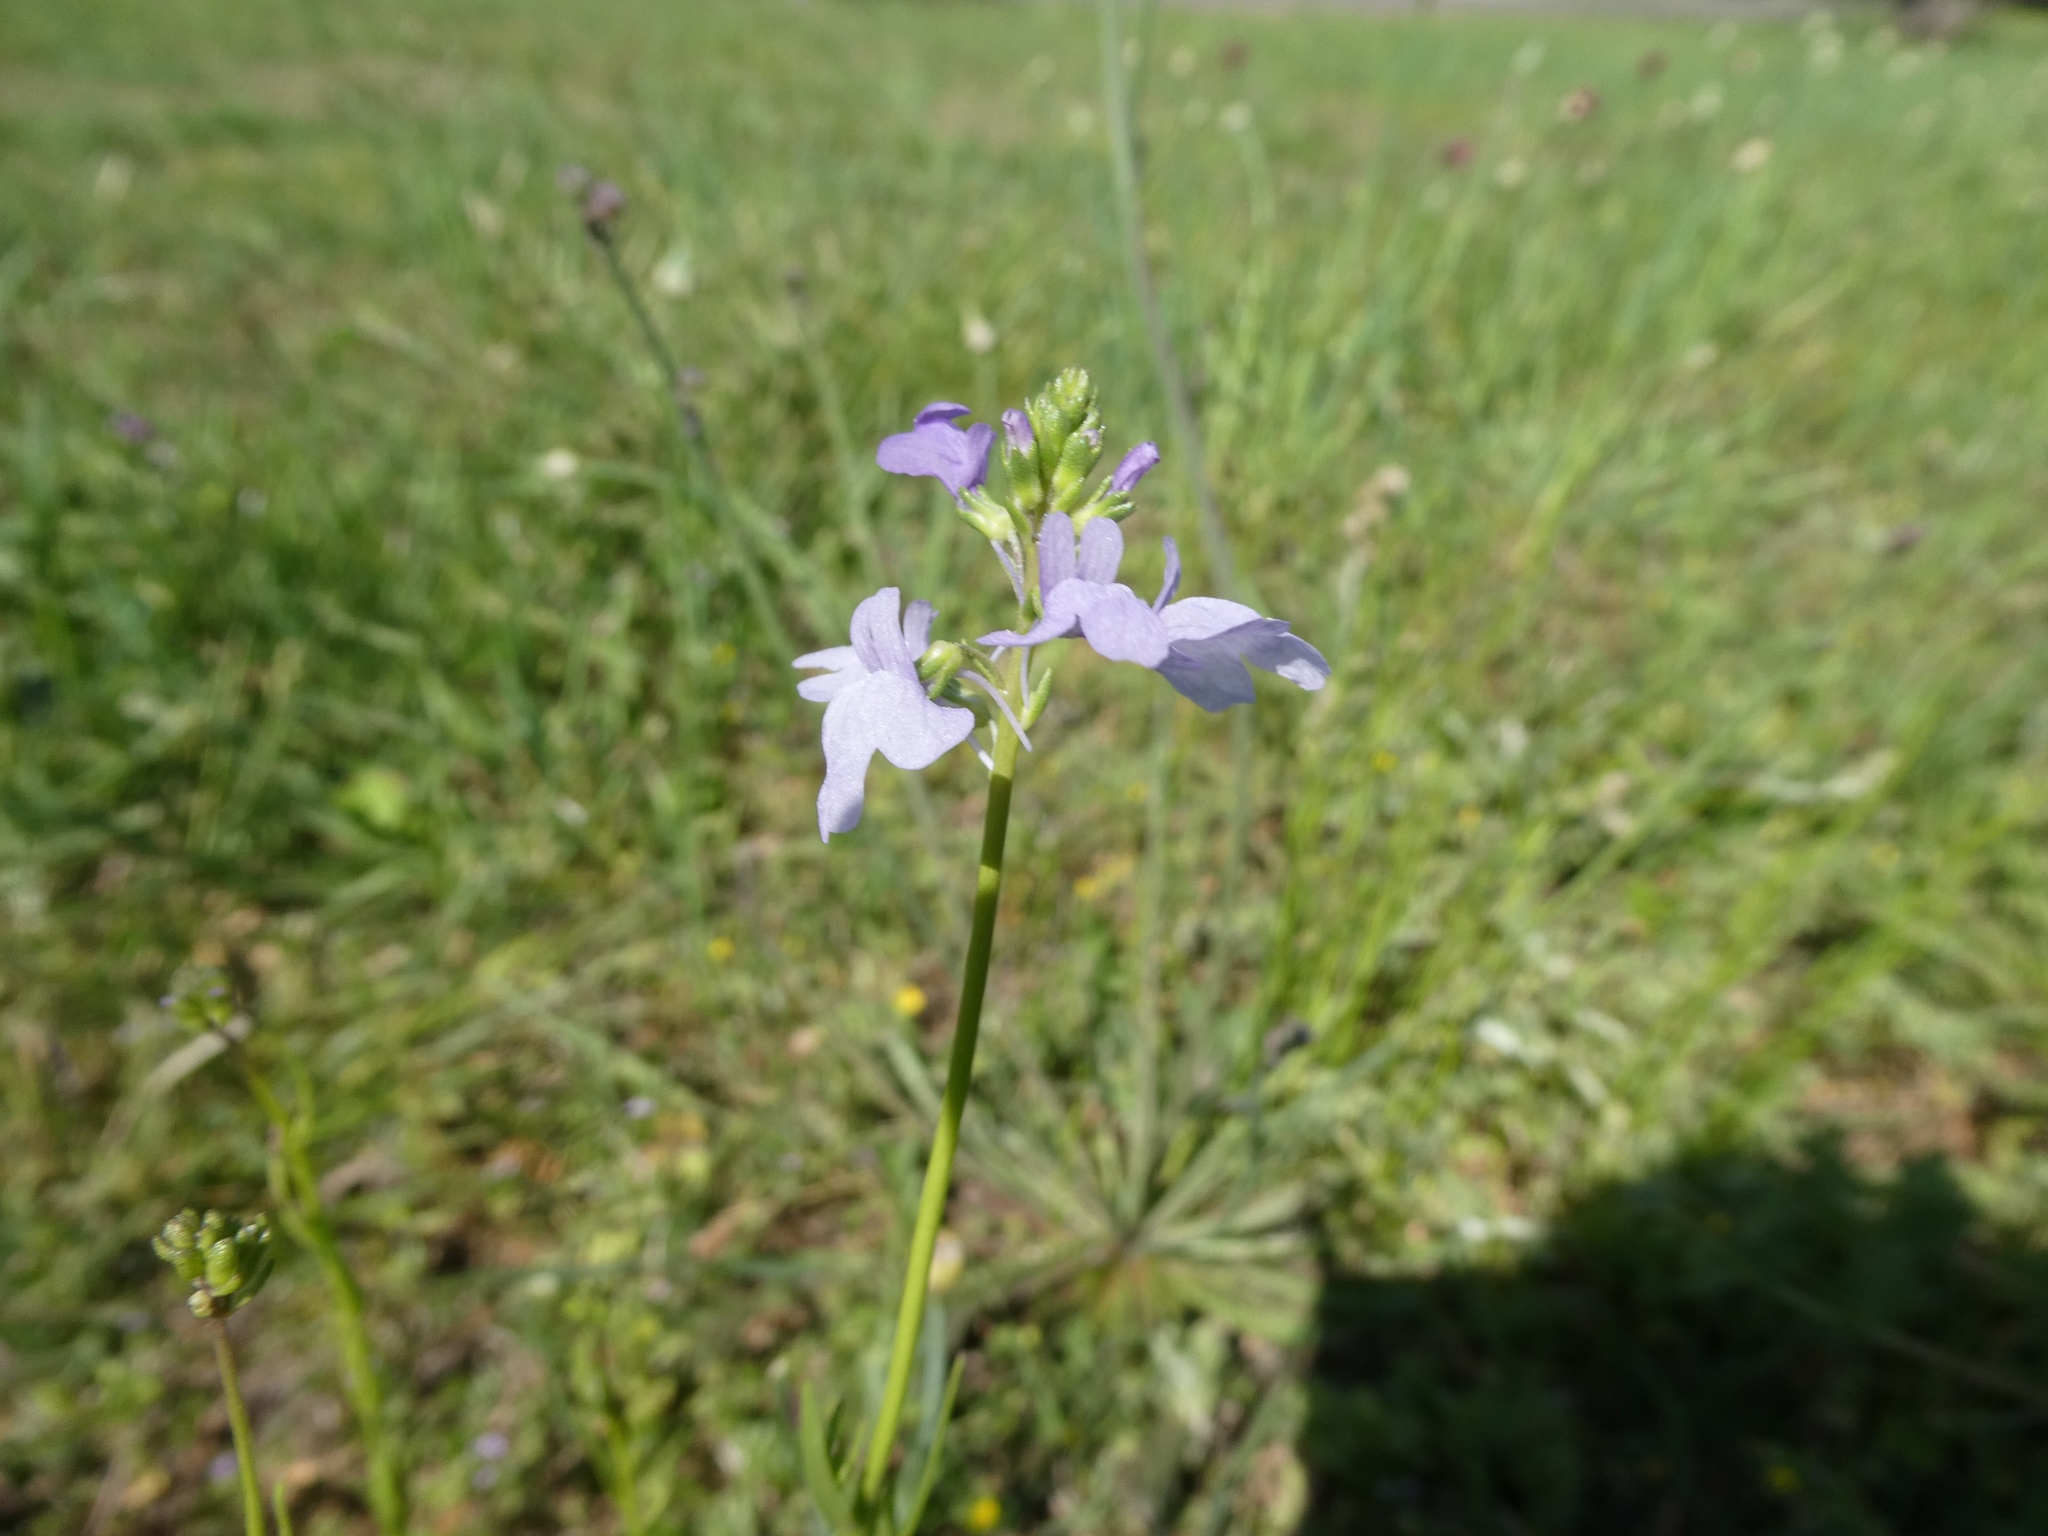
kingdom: Plantae
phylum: Tracheophyta
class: Magnoliopsida
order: Lamiales
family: Plantaginaceae
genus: Nuttallanthus
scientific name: Nuttallanthus texanus
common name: Texas toadflax
